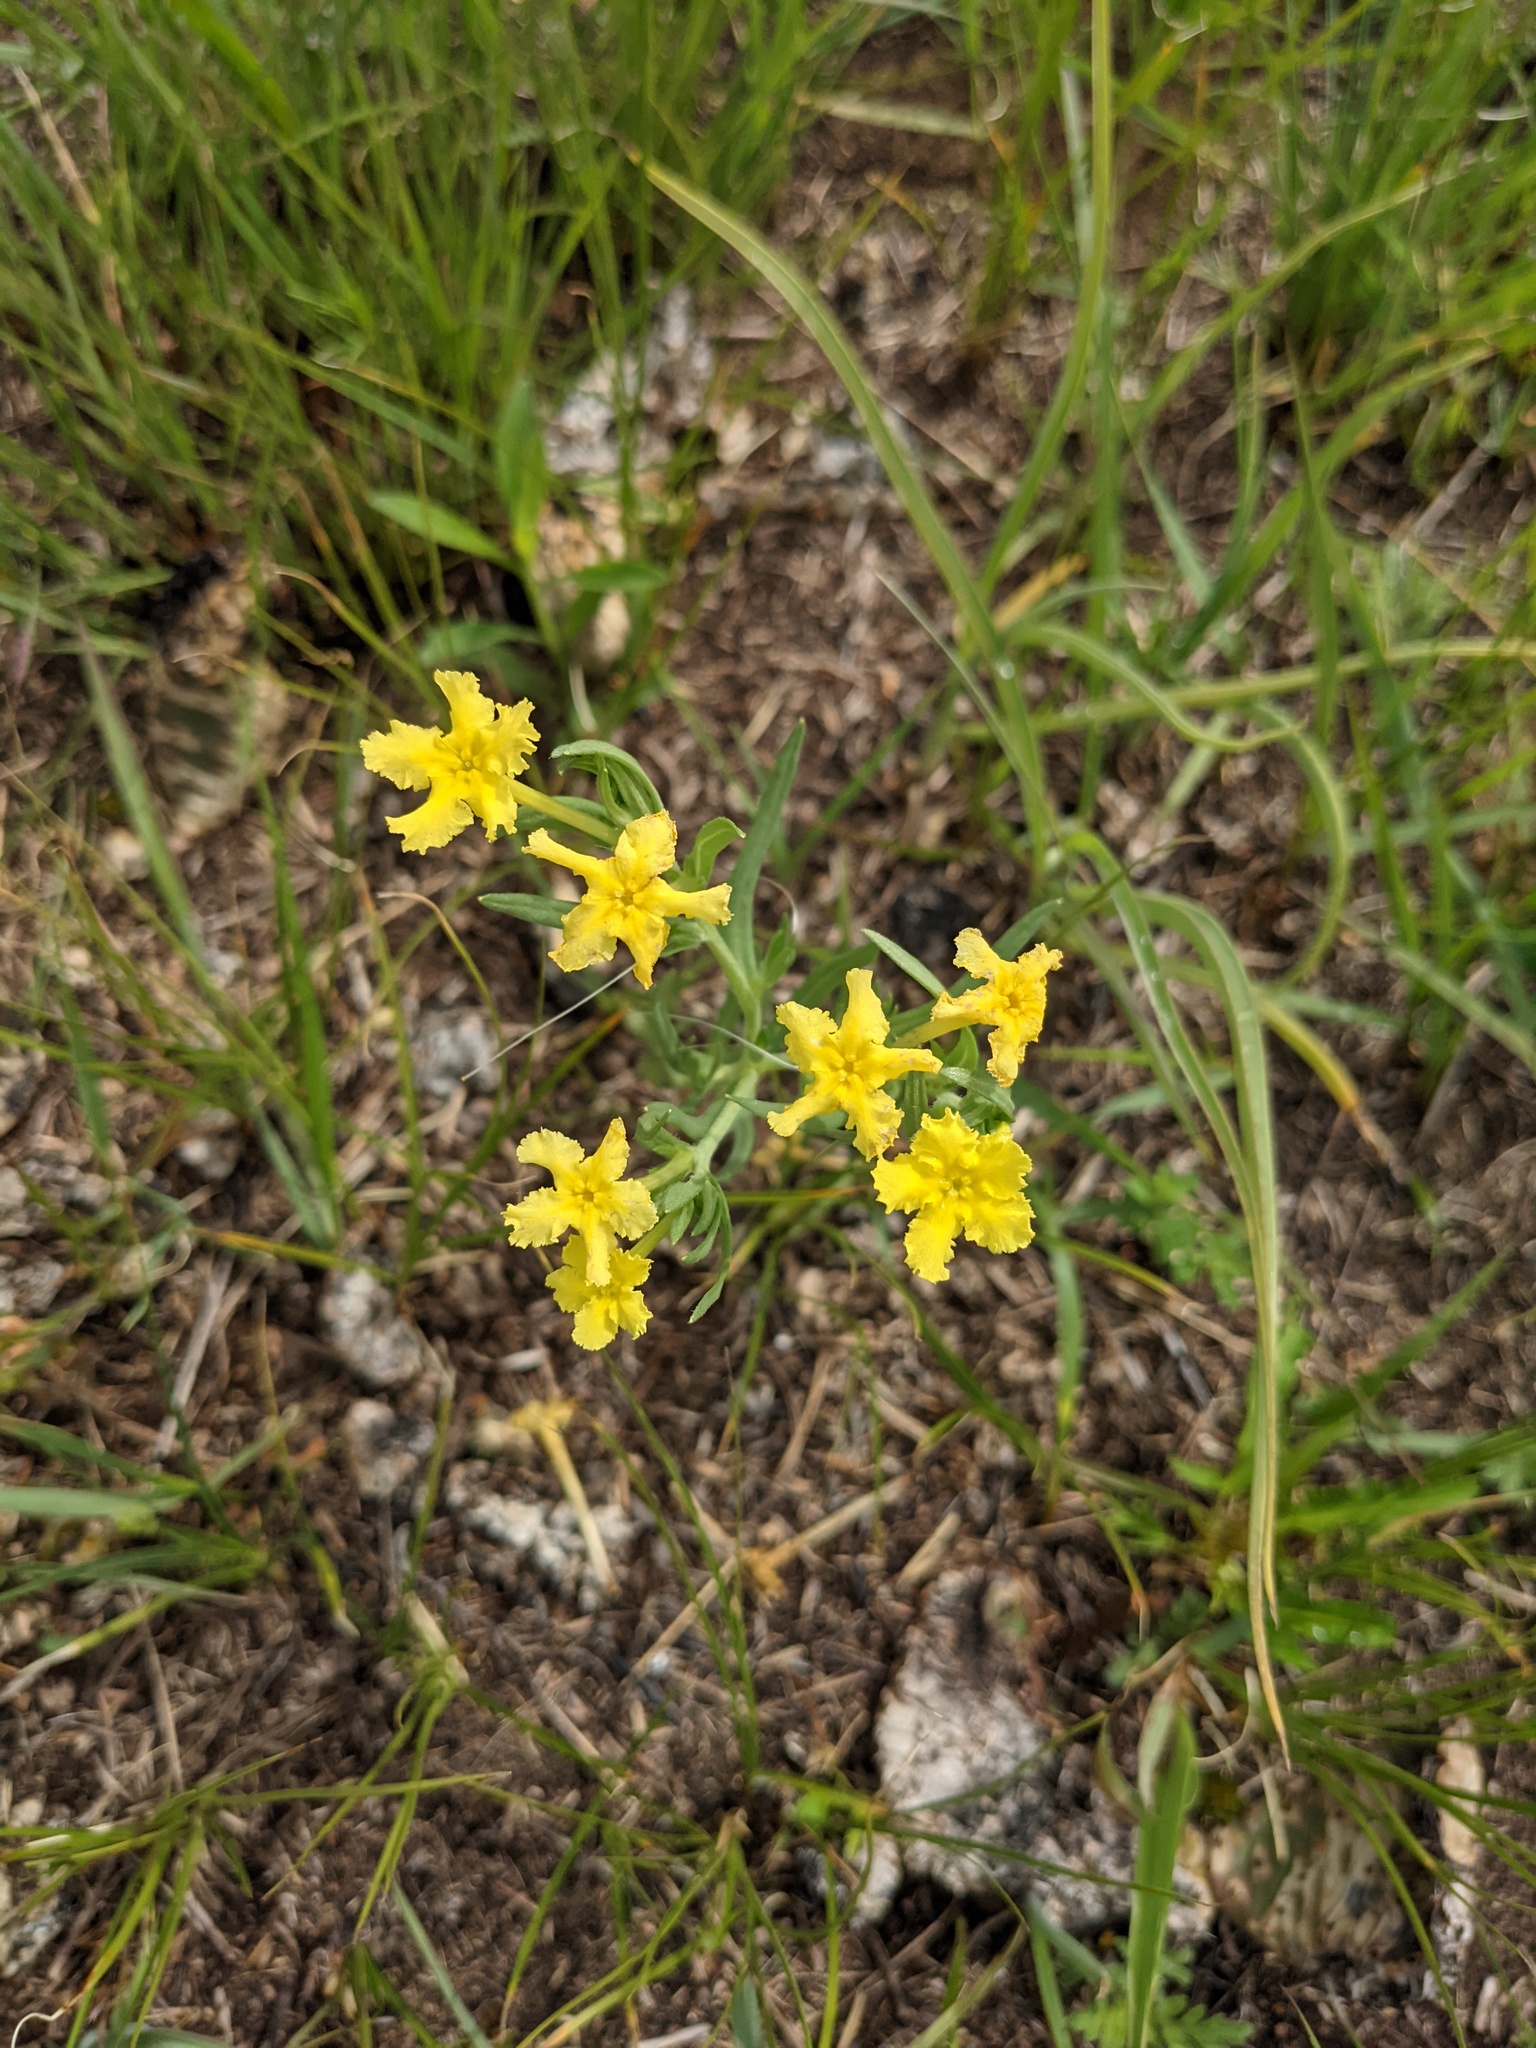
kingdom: Plantae
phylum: Tracheophyta
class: Magnoliopsida
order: Boraginales
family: Boraginaceae
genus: Lithospermum
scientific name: Lithospermum incisum
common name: Fringed gromwell
